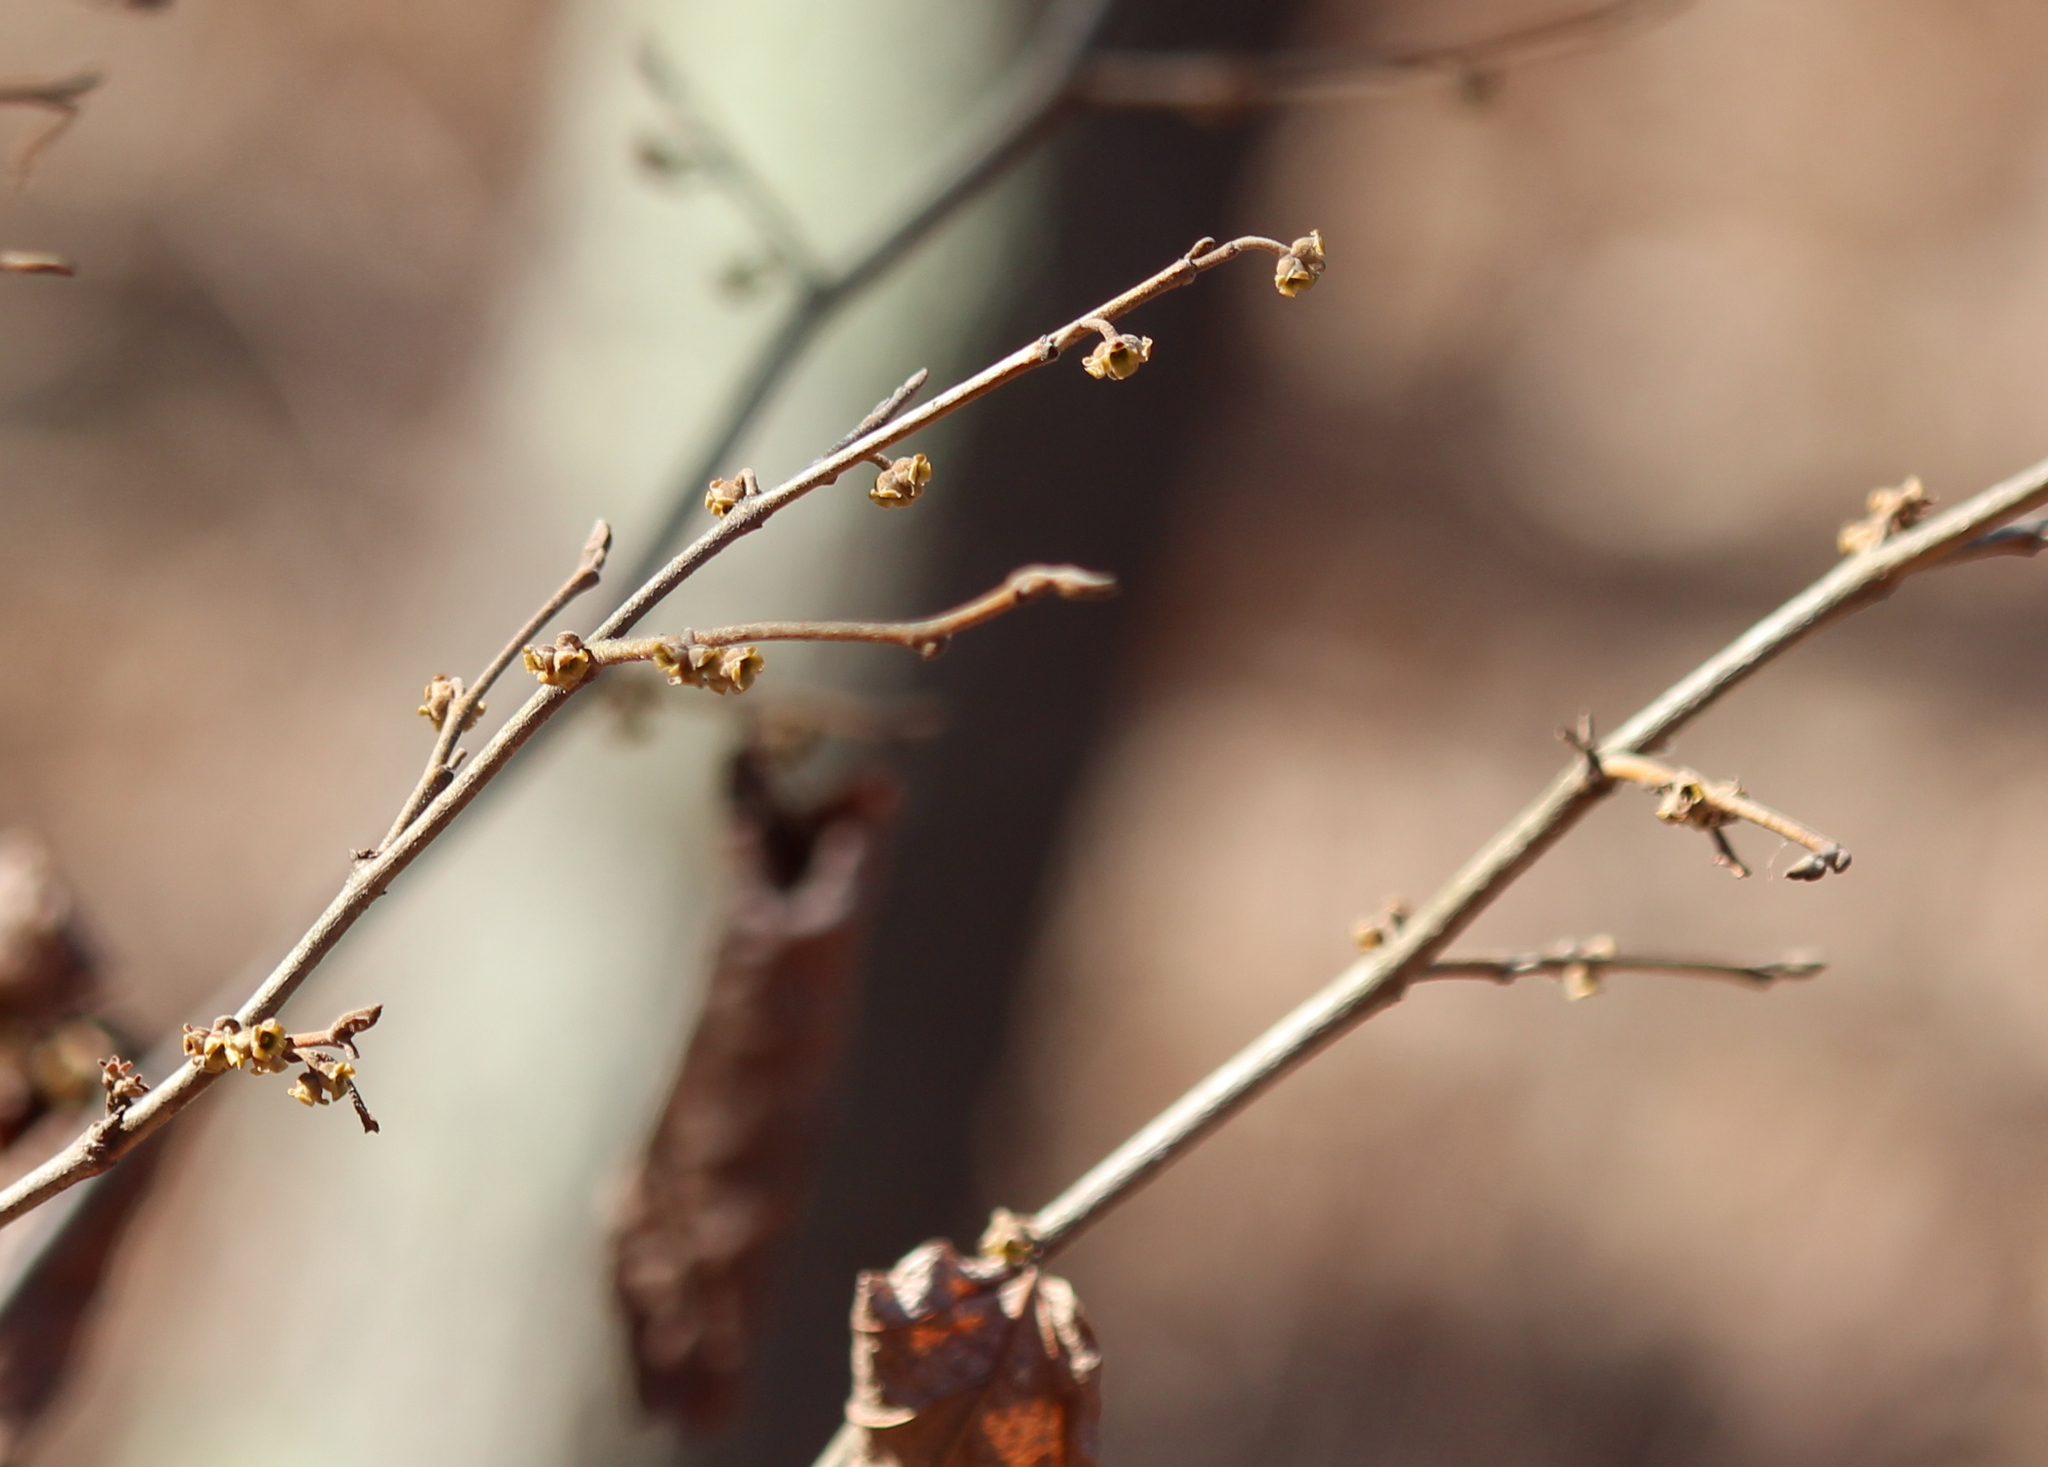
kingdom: Plantae
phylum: Tracheophyta
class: Magnoliopsida
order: Saxifragales
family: Hamamelidaceae
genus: Hamamelis
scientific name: Hamamelis virginiana
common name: Witch-hazel
